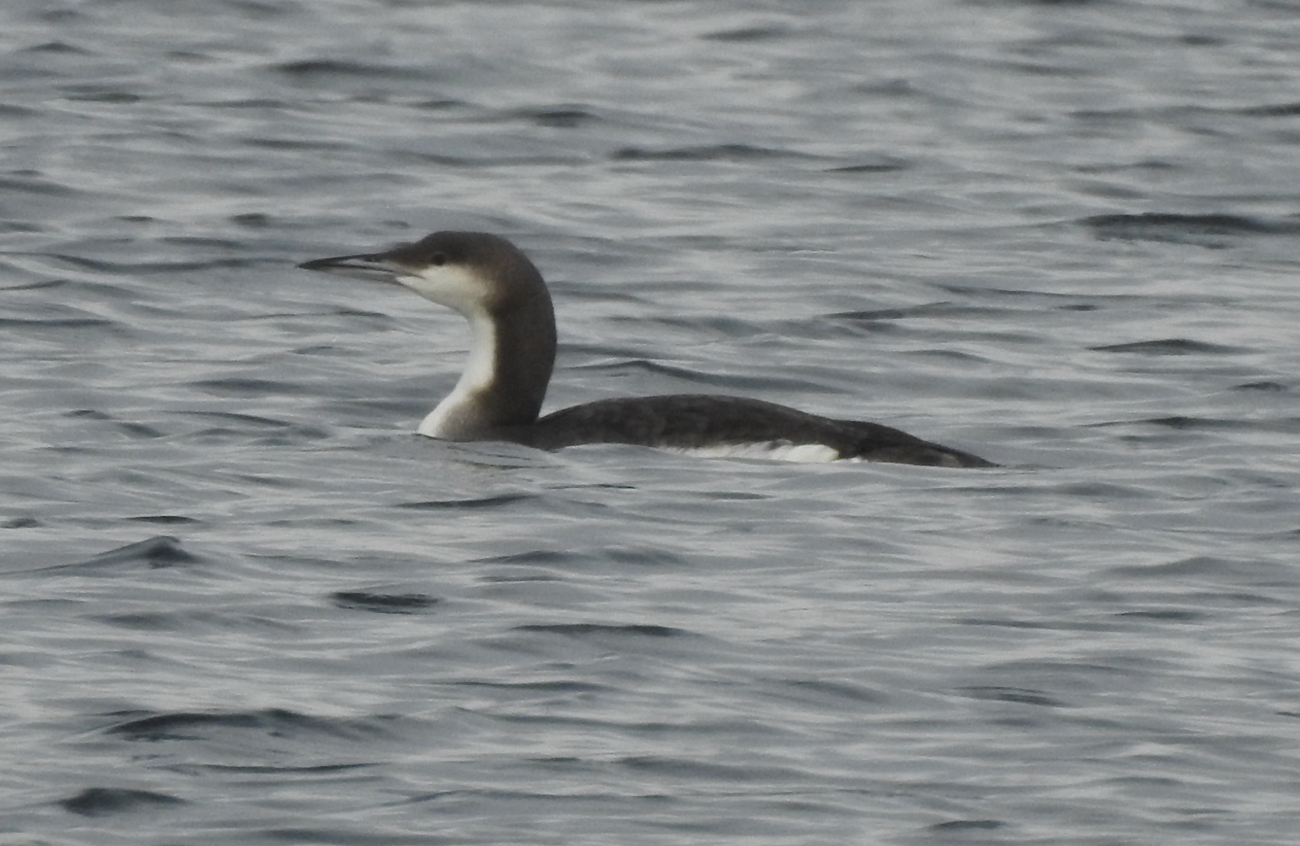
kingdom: Animalia
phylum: Chordata
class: Aves
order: Gaviiformes
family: Gaviidae
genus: Gavia
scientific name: Gavia arctica
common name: Black-throated loon
